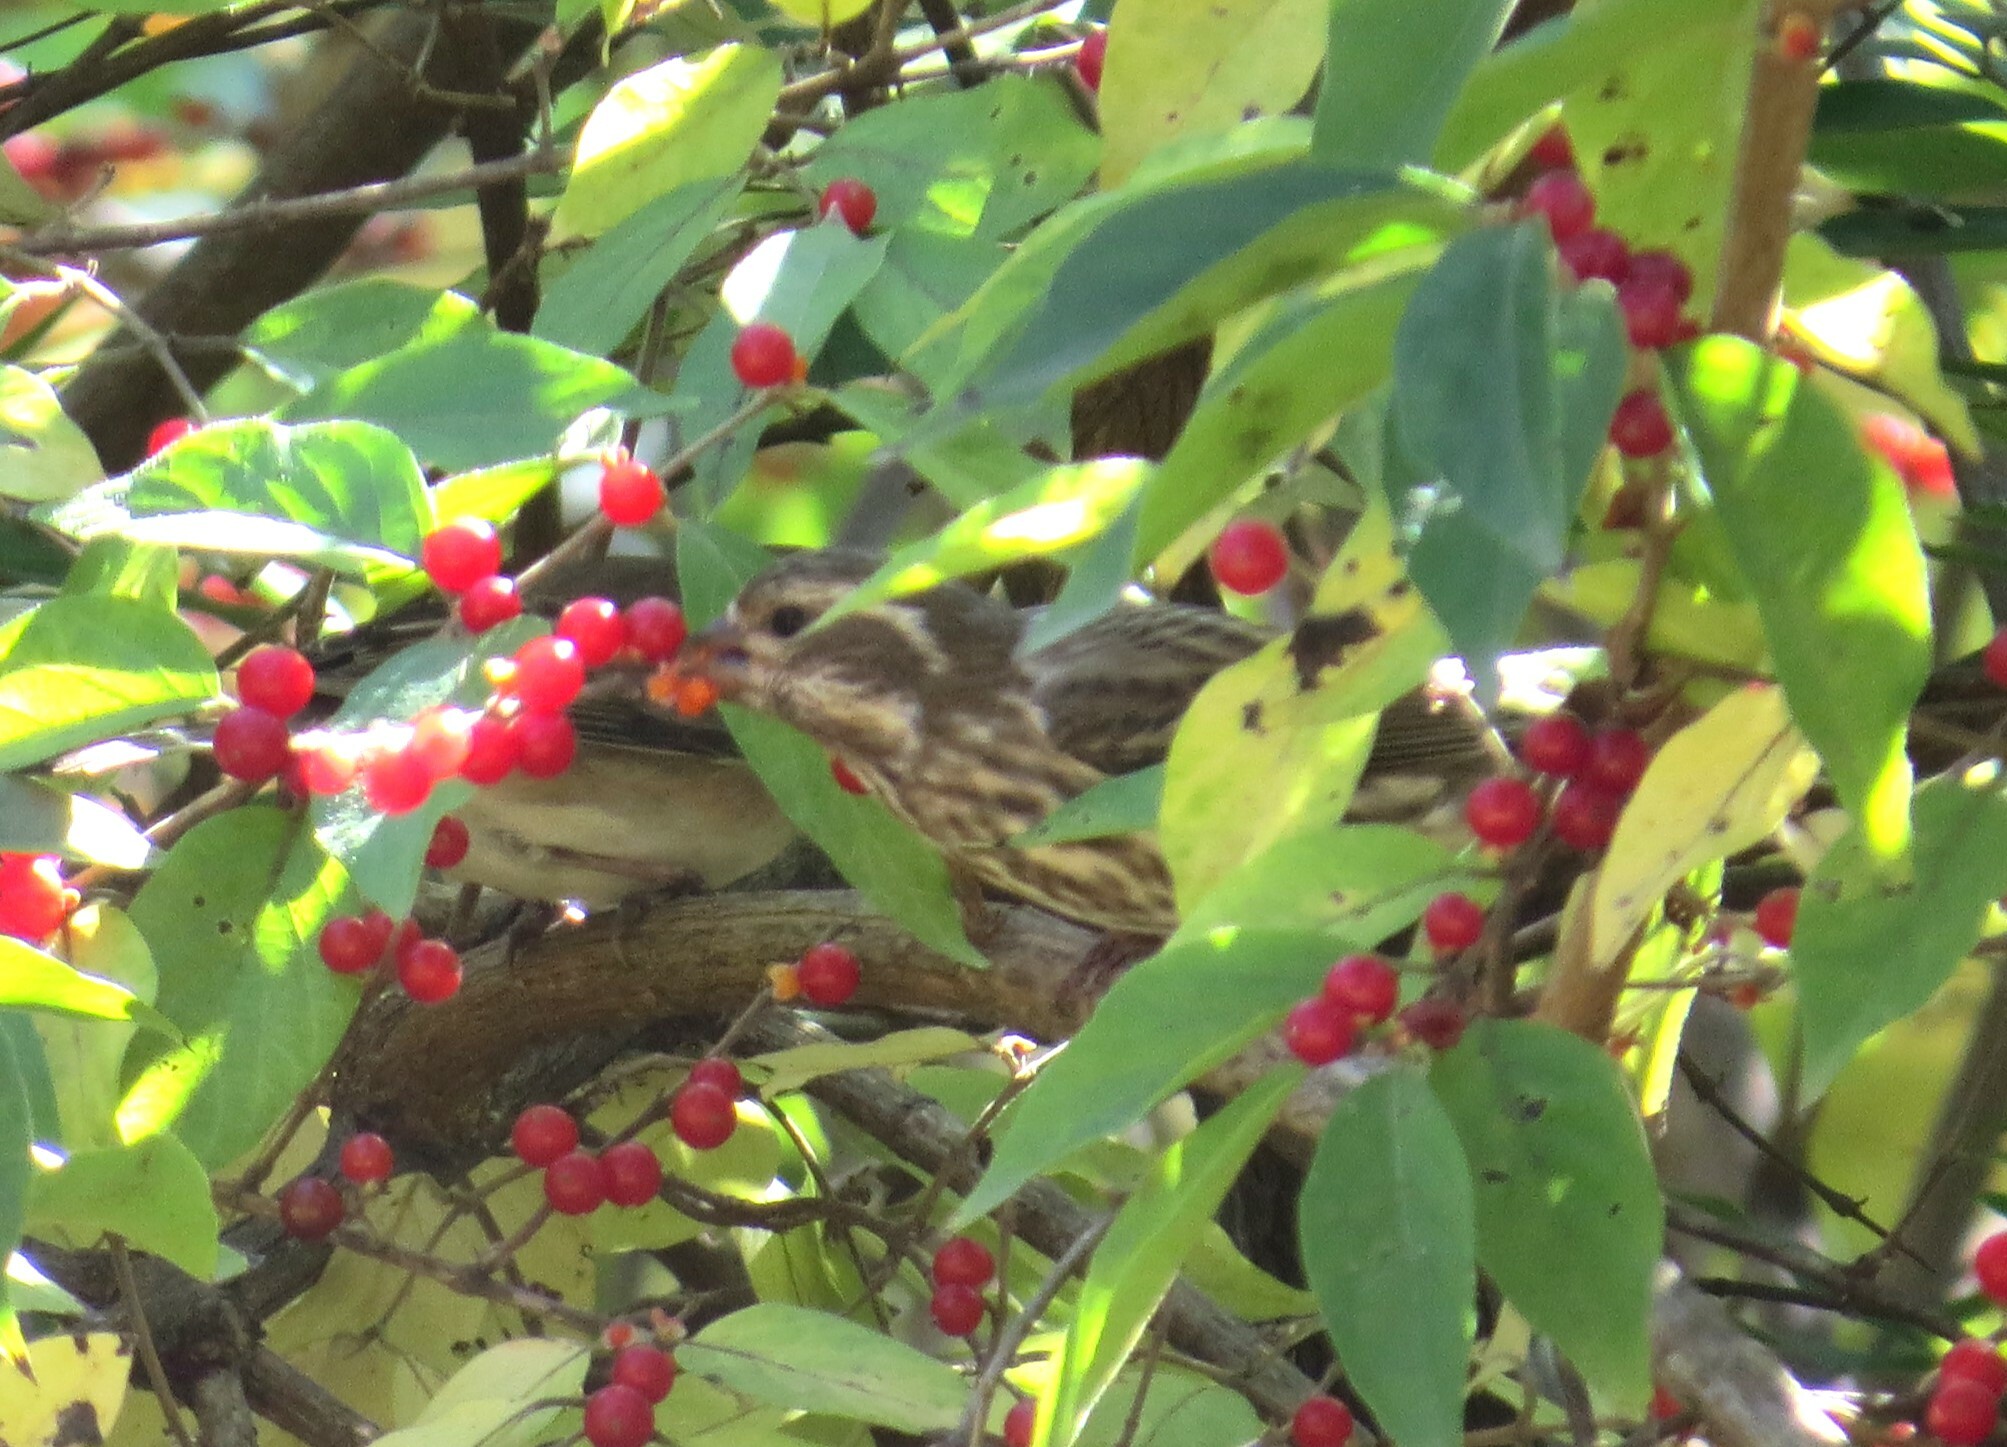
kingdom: Animalia
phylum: Chordata
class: Aves
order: Passeriformes
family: Fringillidae
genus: Haemorhous
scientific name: Haemorhous purpureus
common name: Purple finch
